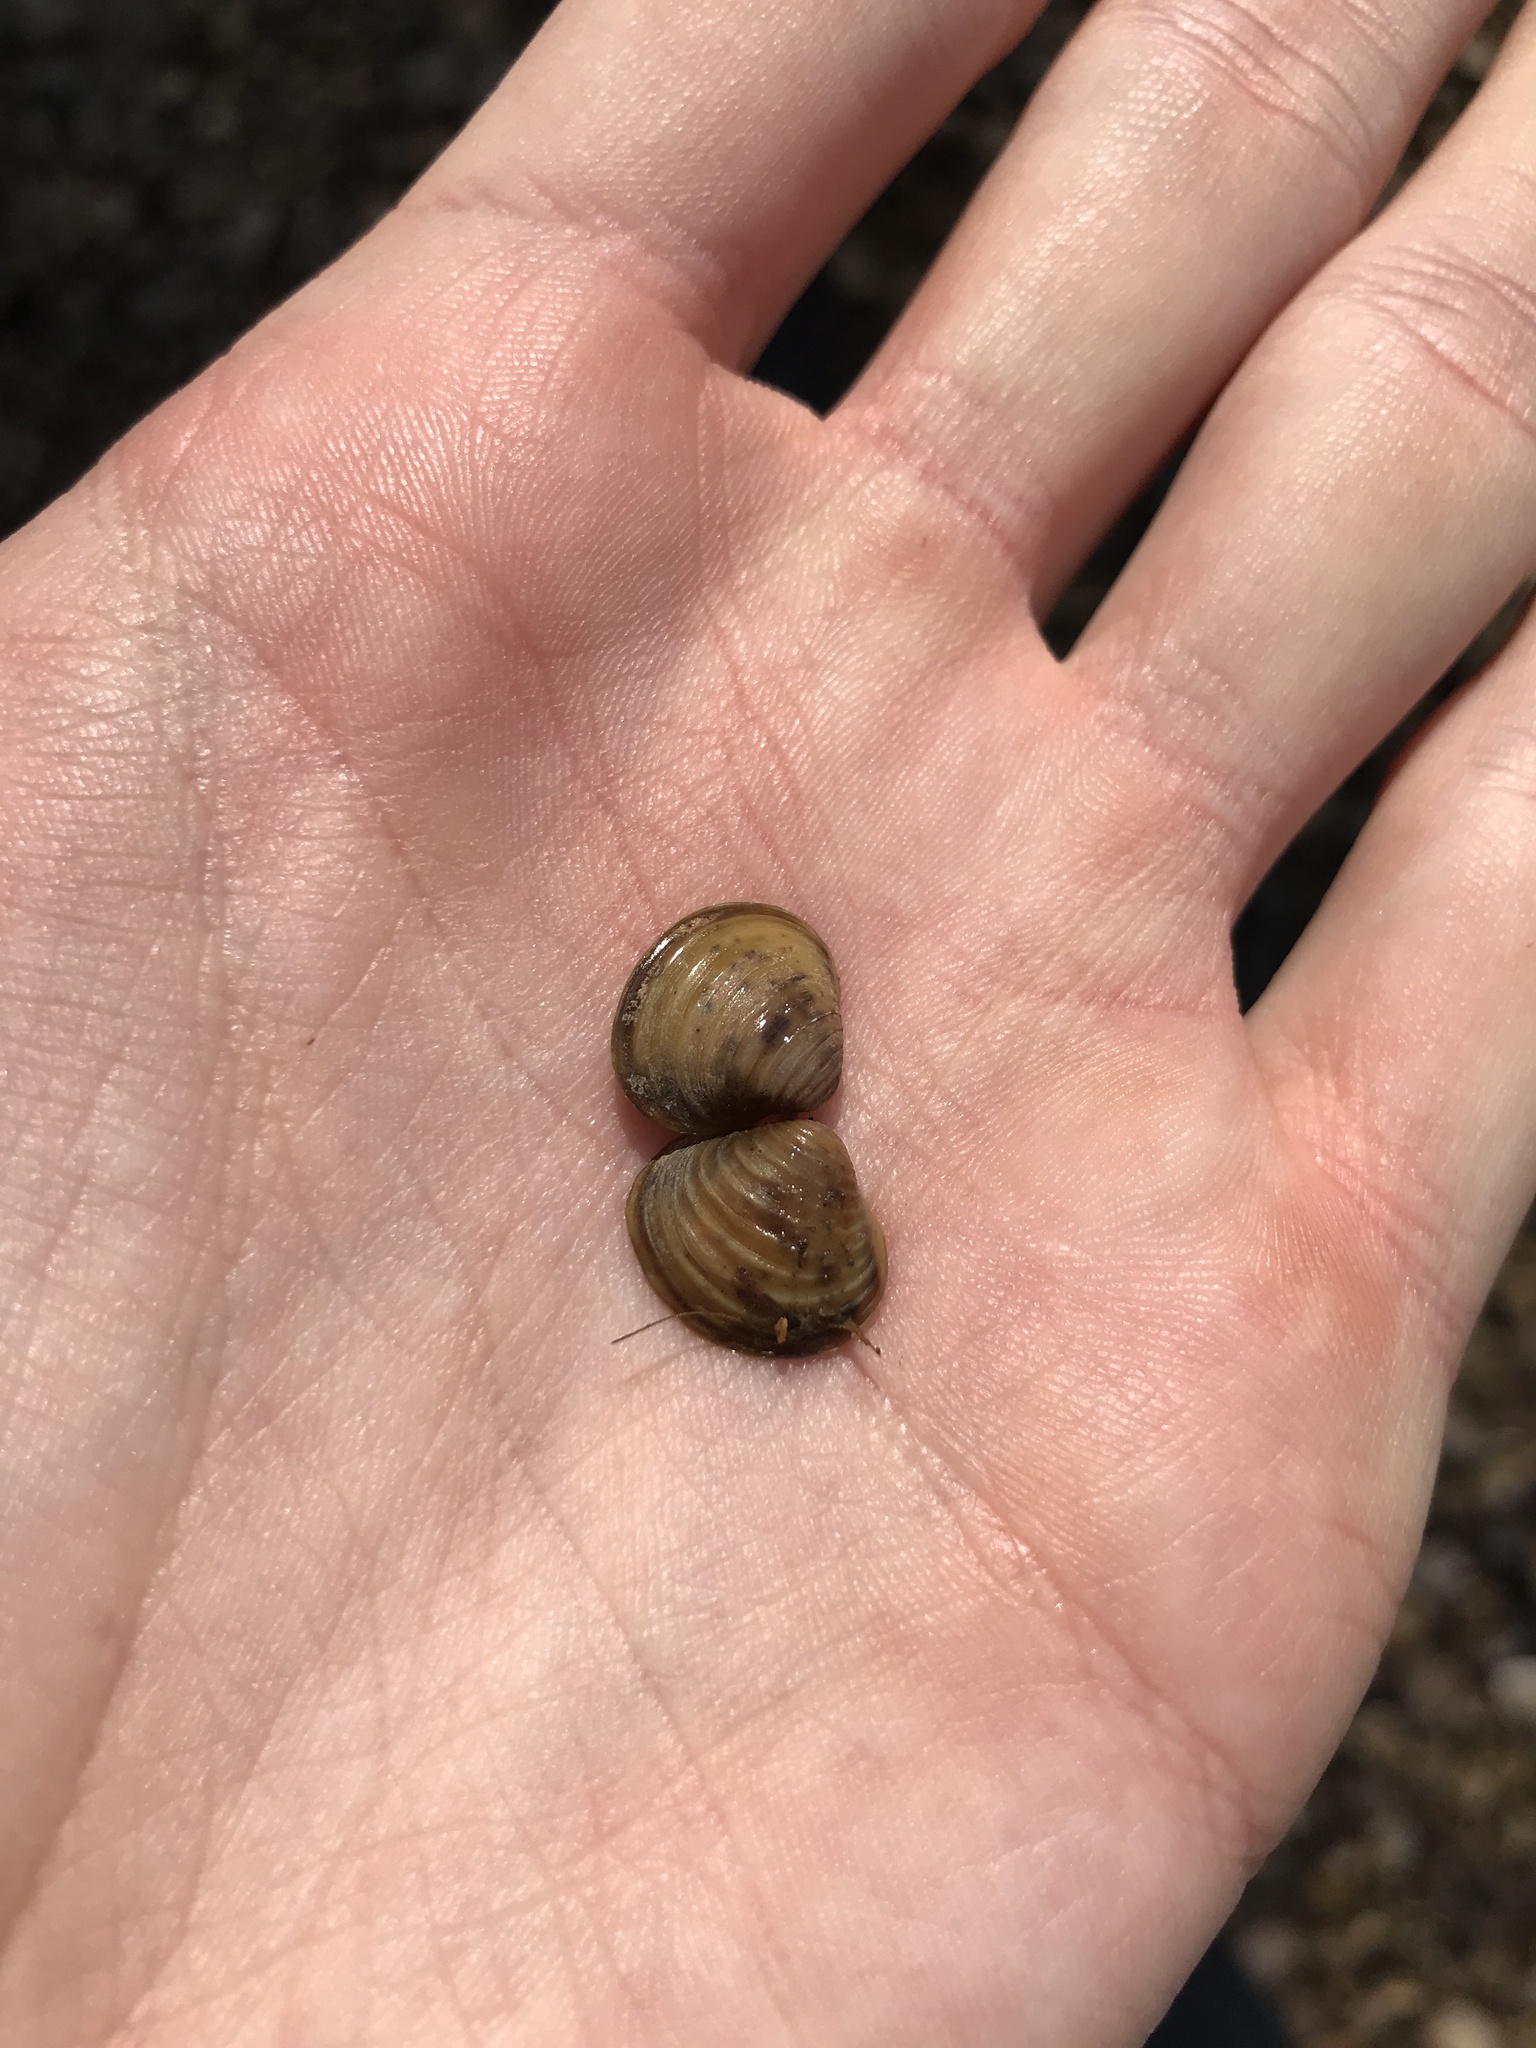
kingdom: Animalia
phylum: Mollusca
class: Bivalvia
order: Venerida
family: Cyrenidae
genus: Corbicula
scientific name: Corbicula fluminea
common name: Asian clam
